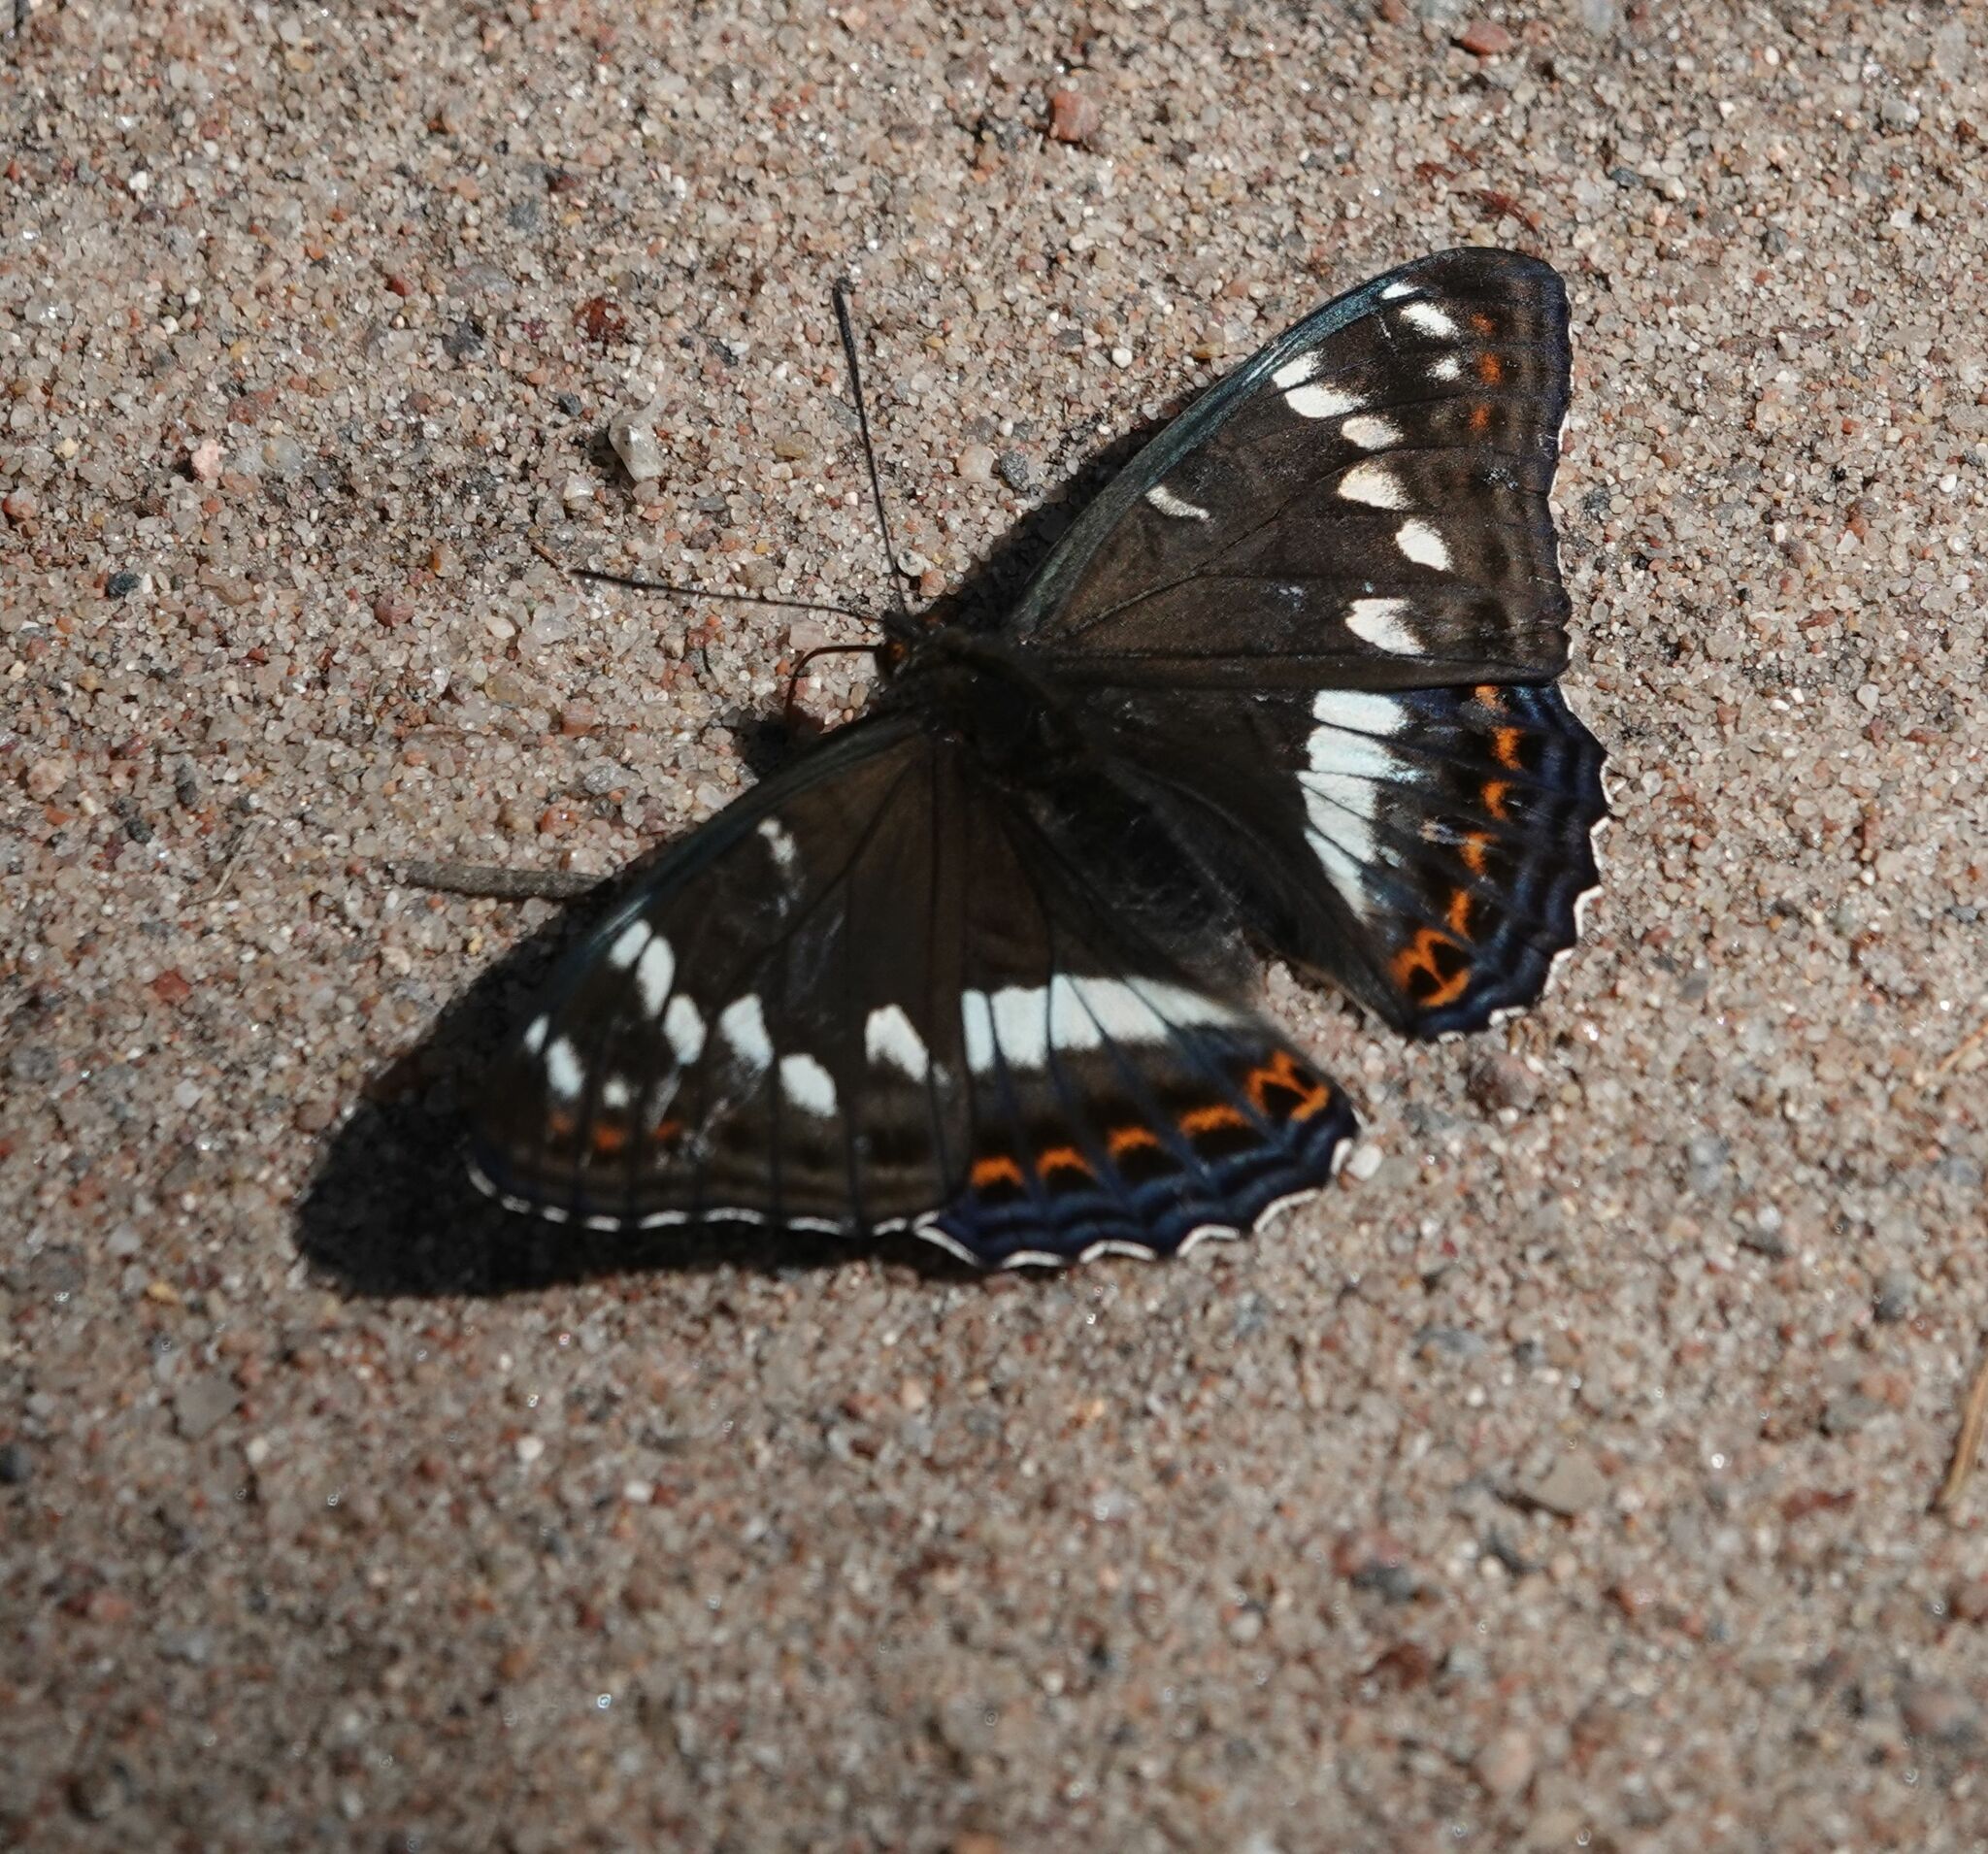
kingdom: Animalia
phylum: Arthropoda
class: Insecta
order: Lepidoptera
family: Nymphalidae
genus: Limenitis
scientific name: Limenitis populi
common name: Poplar admiral
